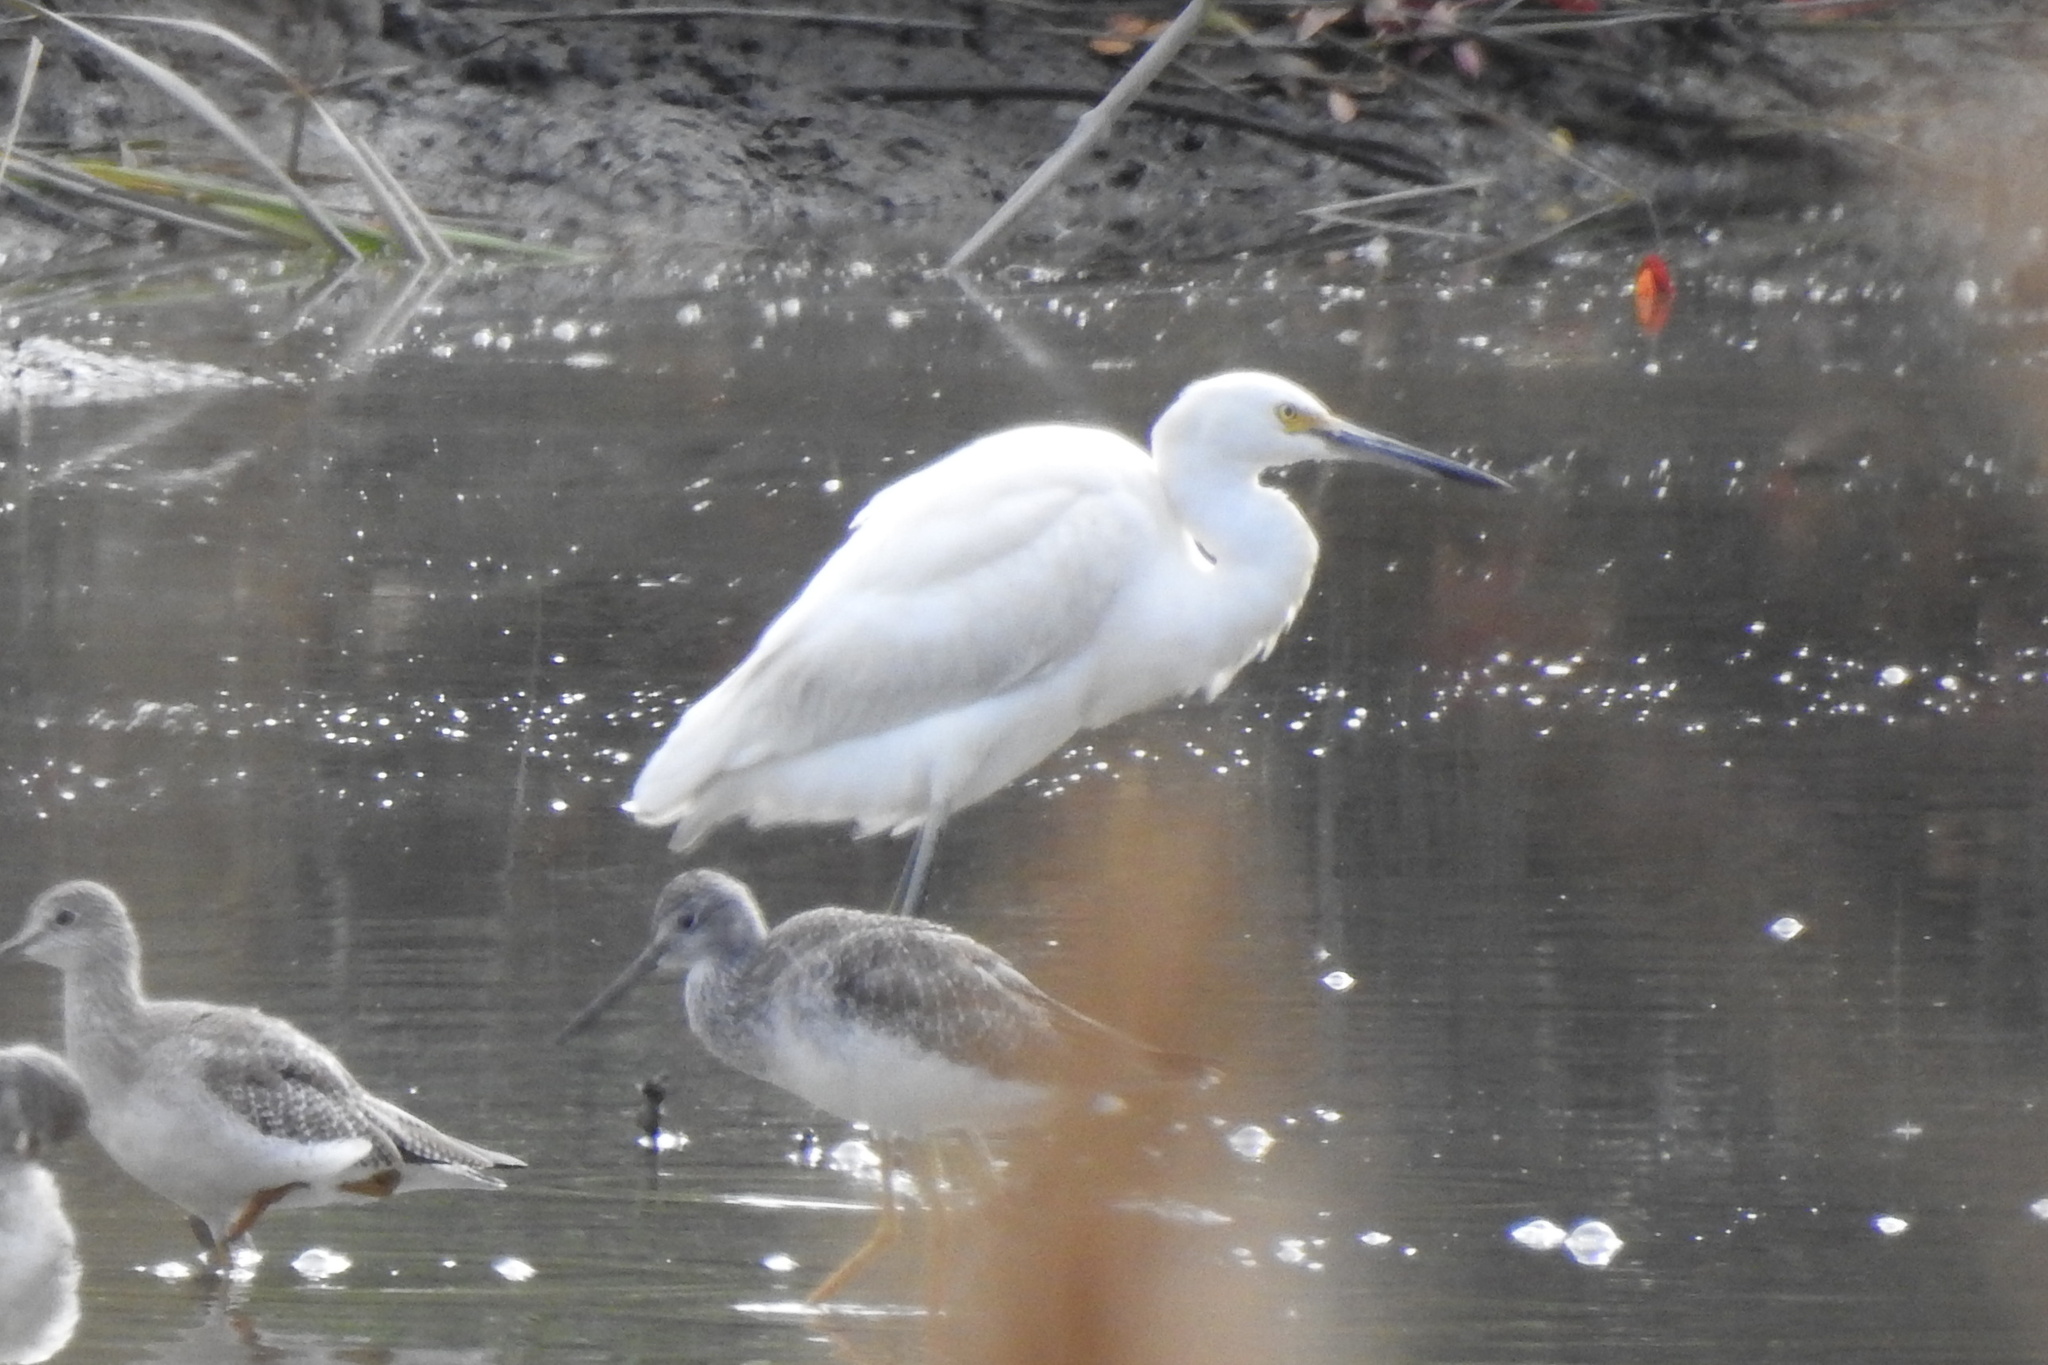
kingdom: Animalia
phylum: Chordata
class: Aves
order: Pelecaniformes
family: Ardeidae
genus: Egretta
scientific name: Egretta thula
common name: Snowy egret
